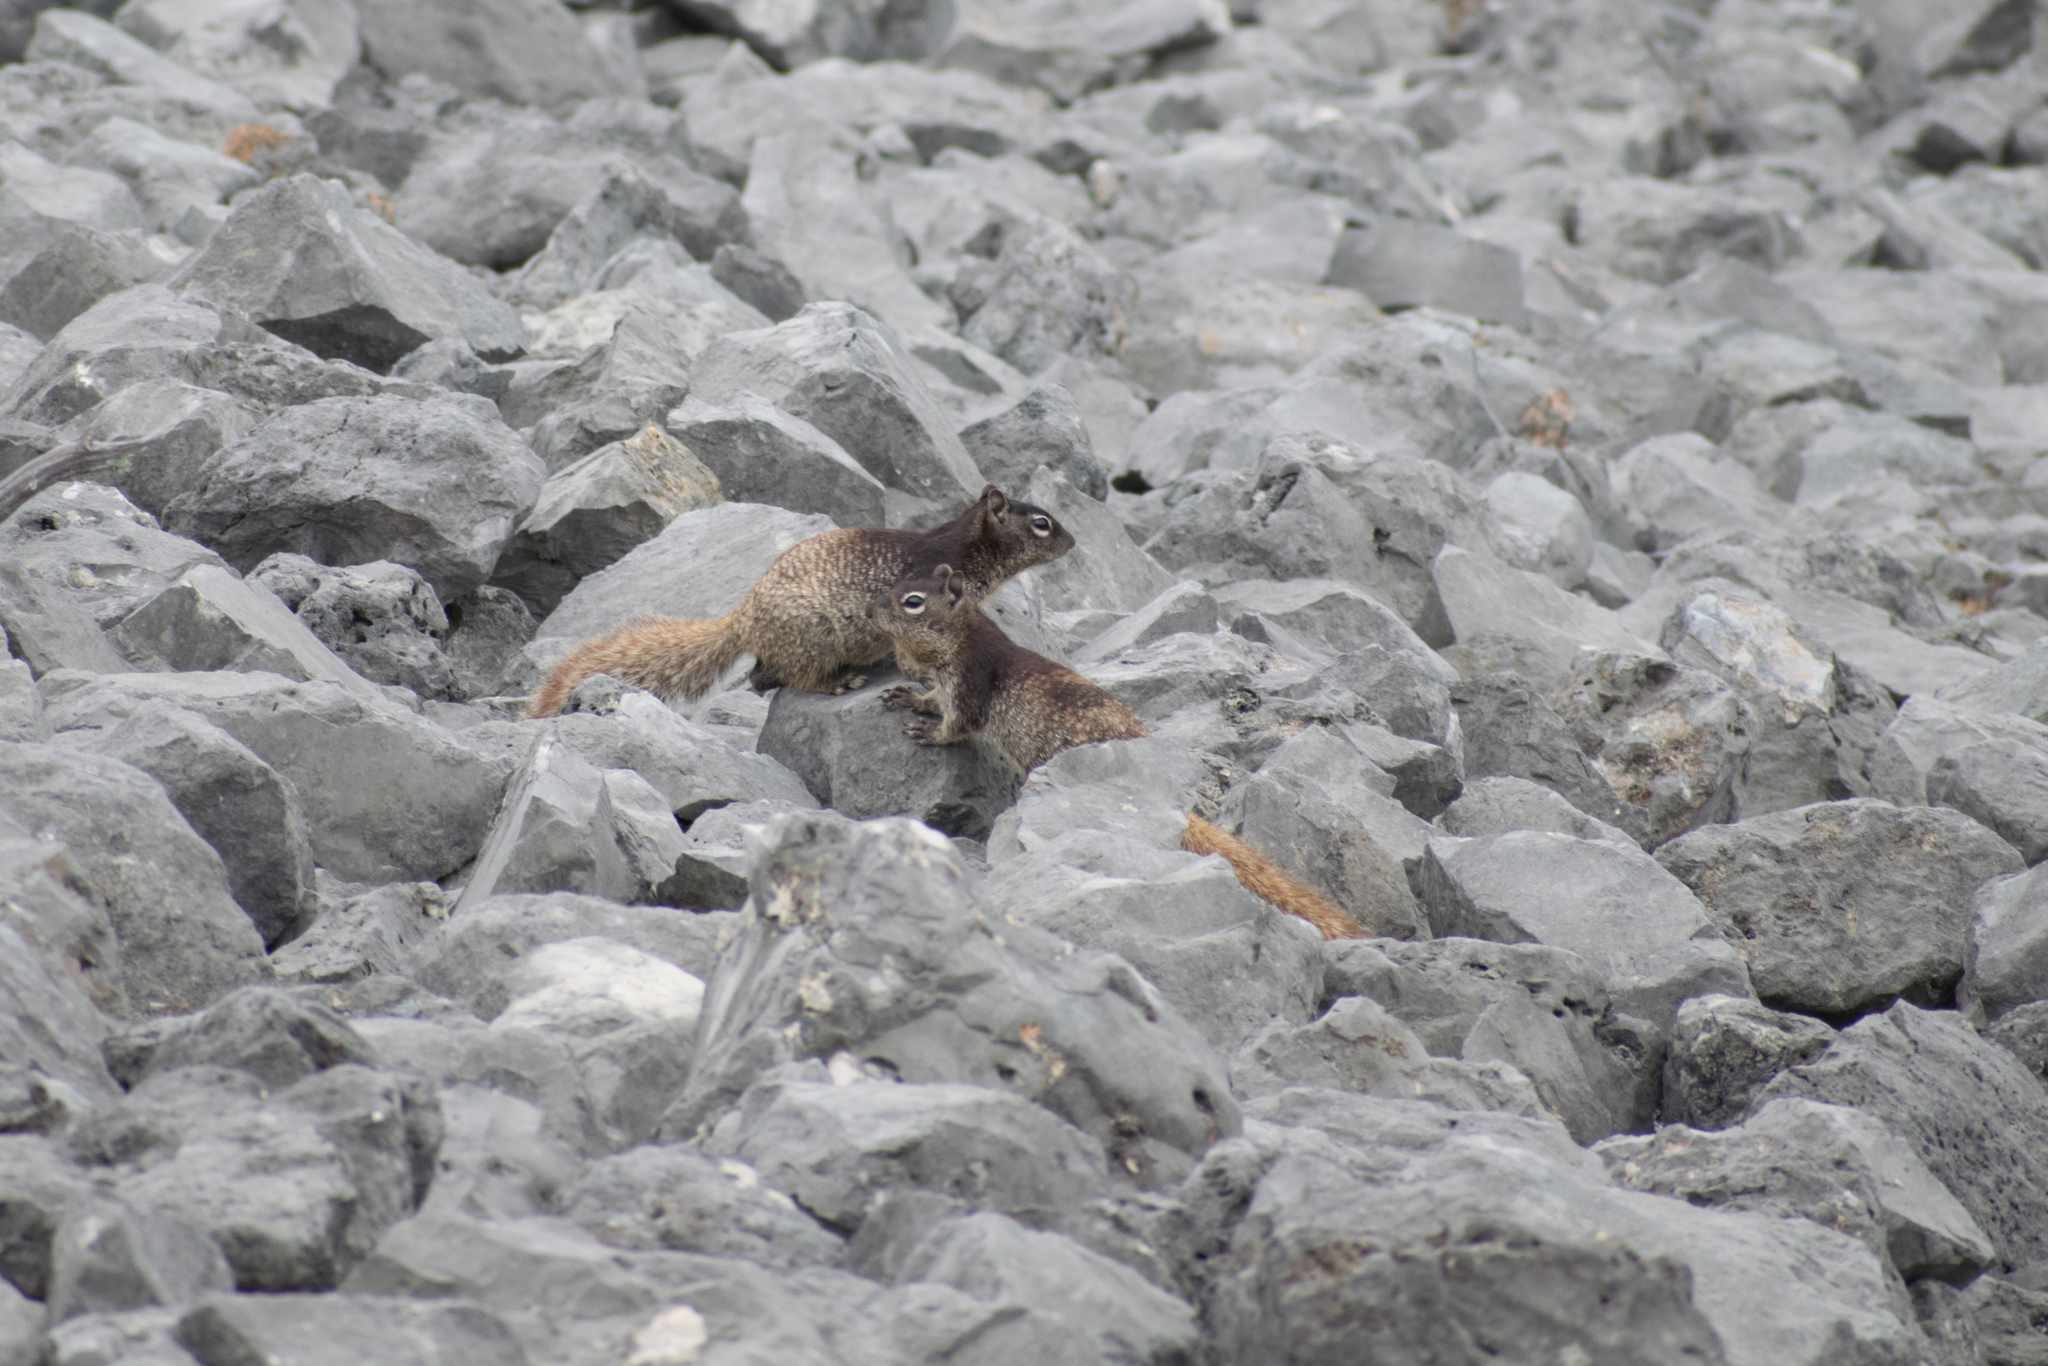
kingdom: Animalia
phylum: Chordata
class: Mammalia
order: Rodentia
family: Sciuridae
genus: Otospermophilus
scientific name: Otospermophilus variegatus
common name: Rock squirrel
